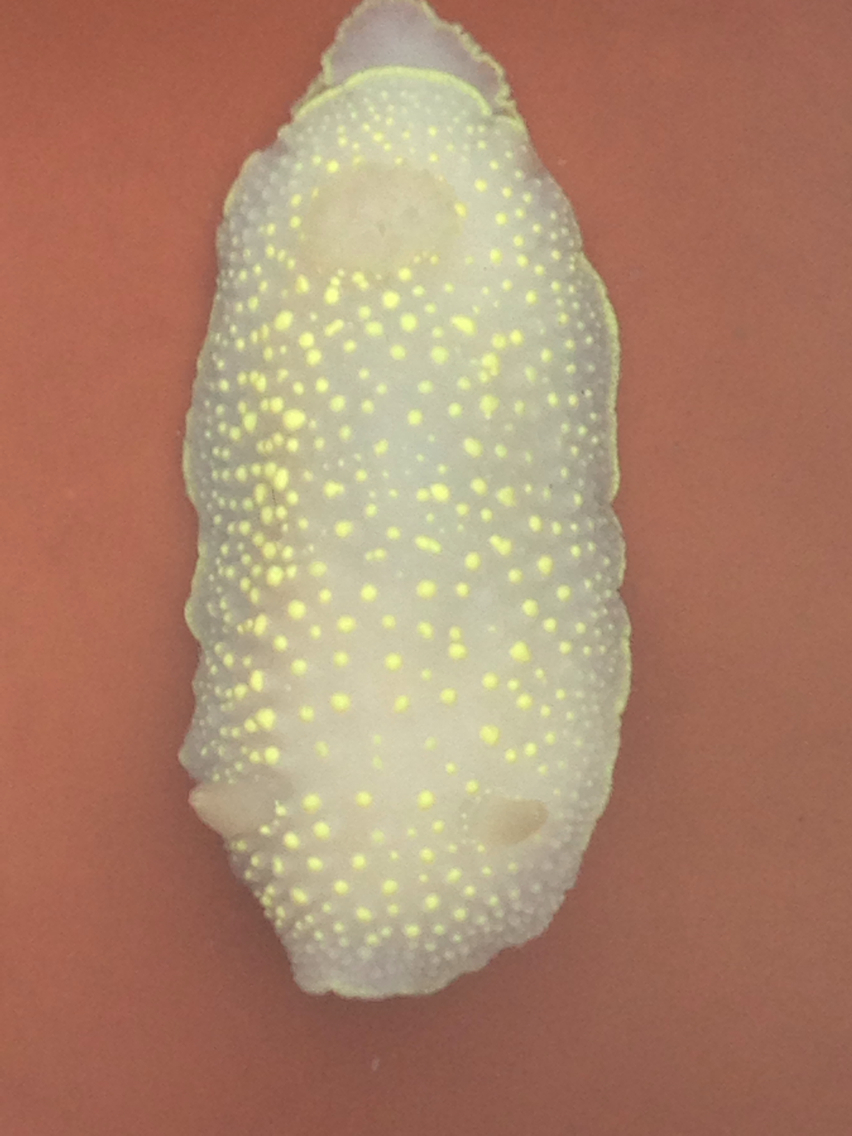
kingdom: Animalia
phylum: Mollusca
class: Gastropoda
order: Nudibranchia
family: Cadlinidae
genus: Cadlina
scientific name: Cadlina luteomarginata
